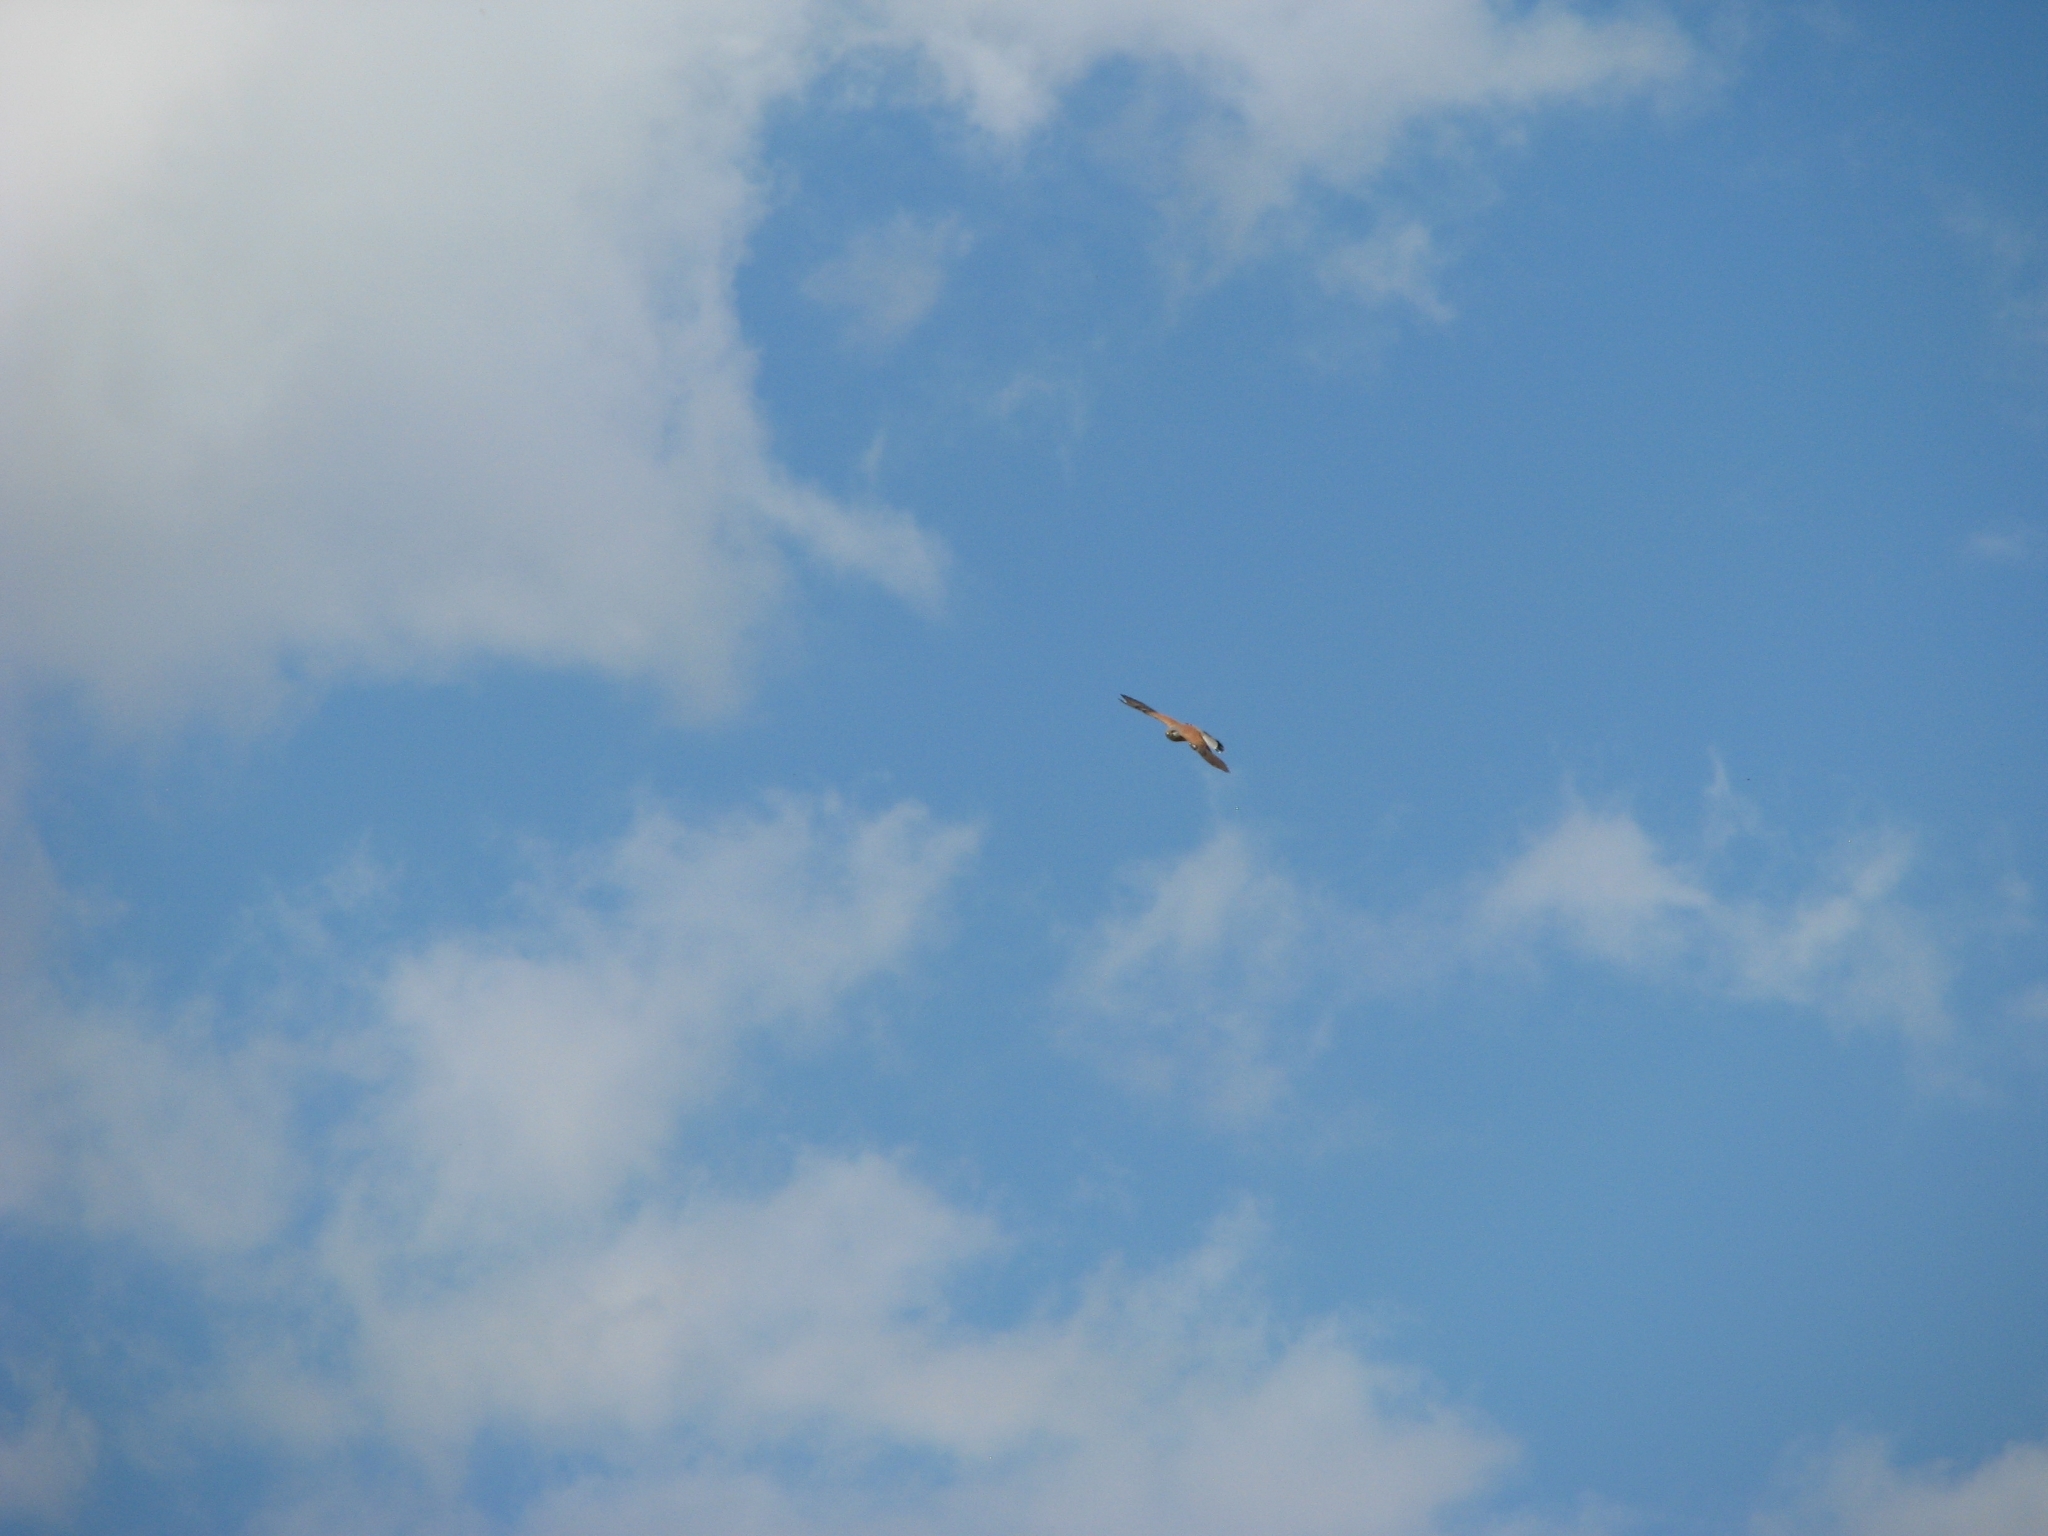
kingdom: Animalia
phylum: Chordata
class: Aves
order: Falconiformes
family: Falconidae
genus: Falco
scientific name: Falco tinnunculus
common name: Common kestrel
